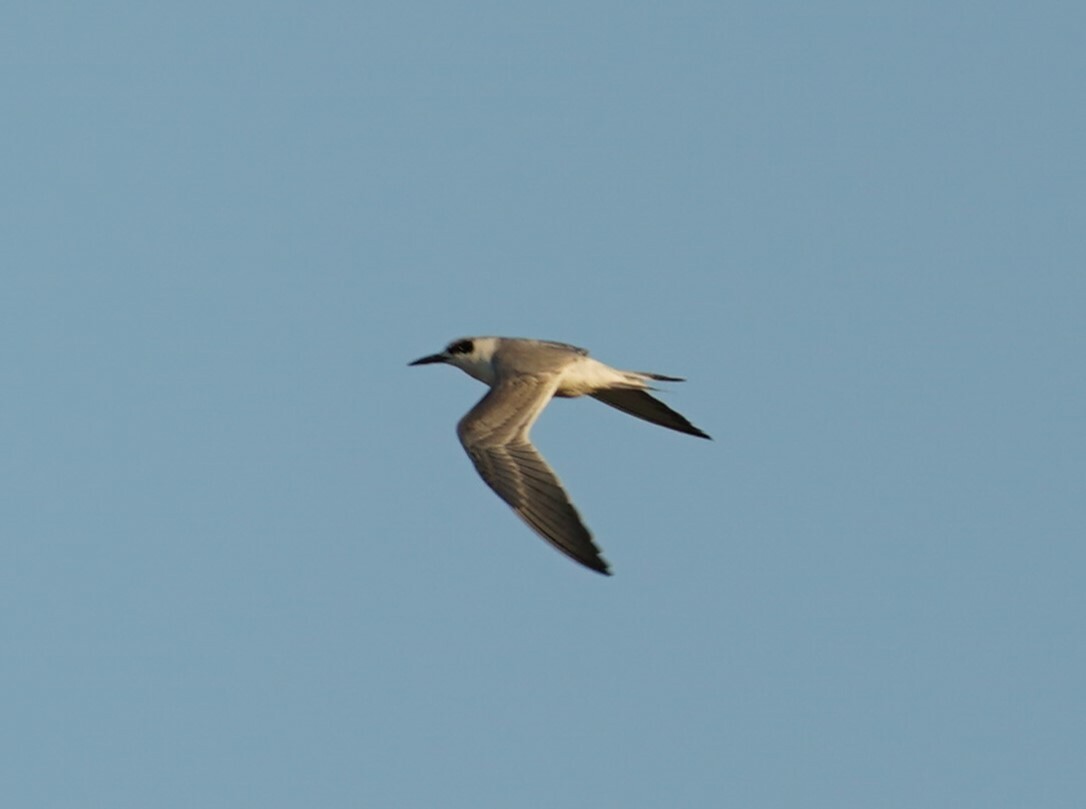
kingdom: Animalia
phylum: Chordata
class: Aves
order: Charadriiformes
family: Laridae
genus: Sterna
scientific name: Sterna forsteri
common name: Forster's tern
